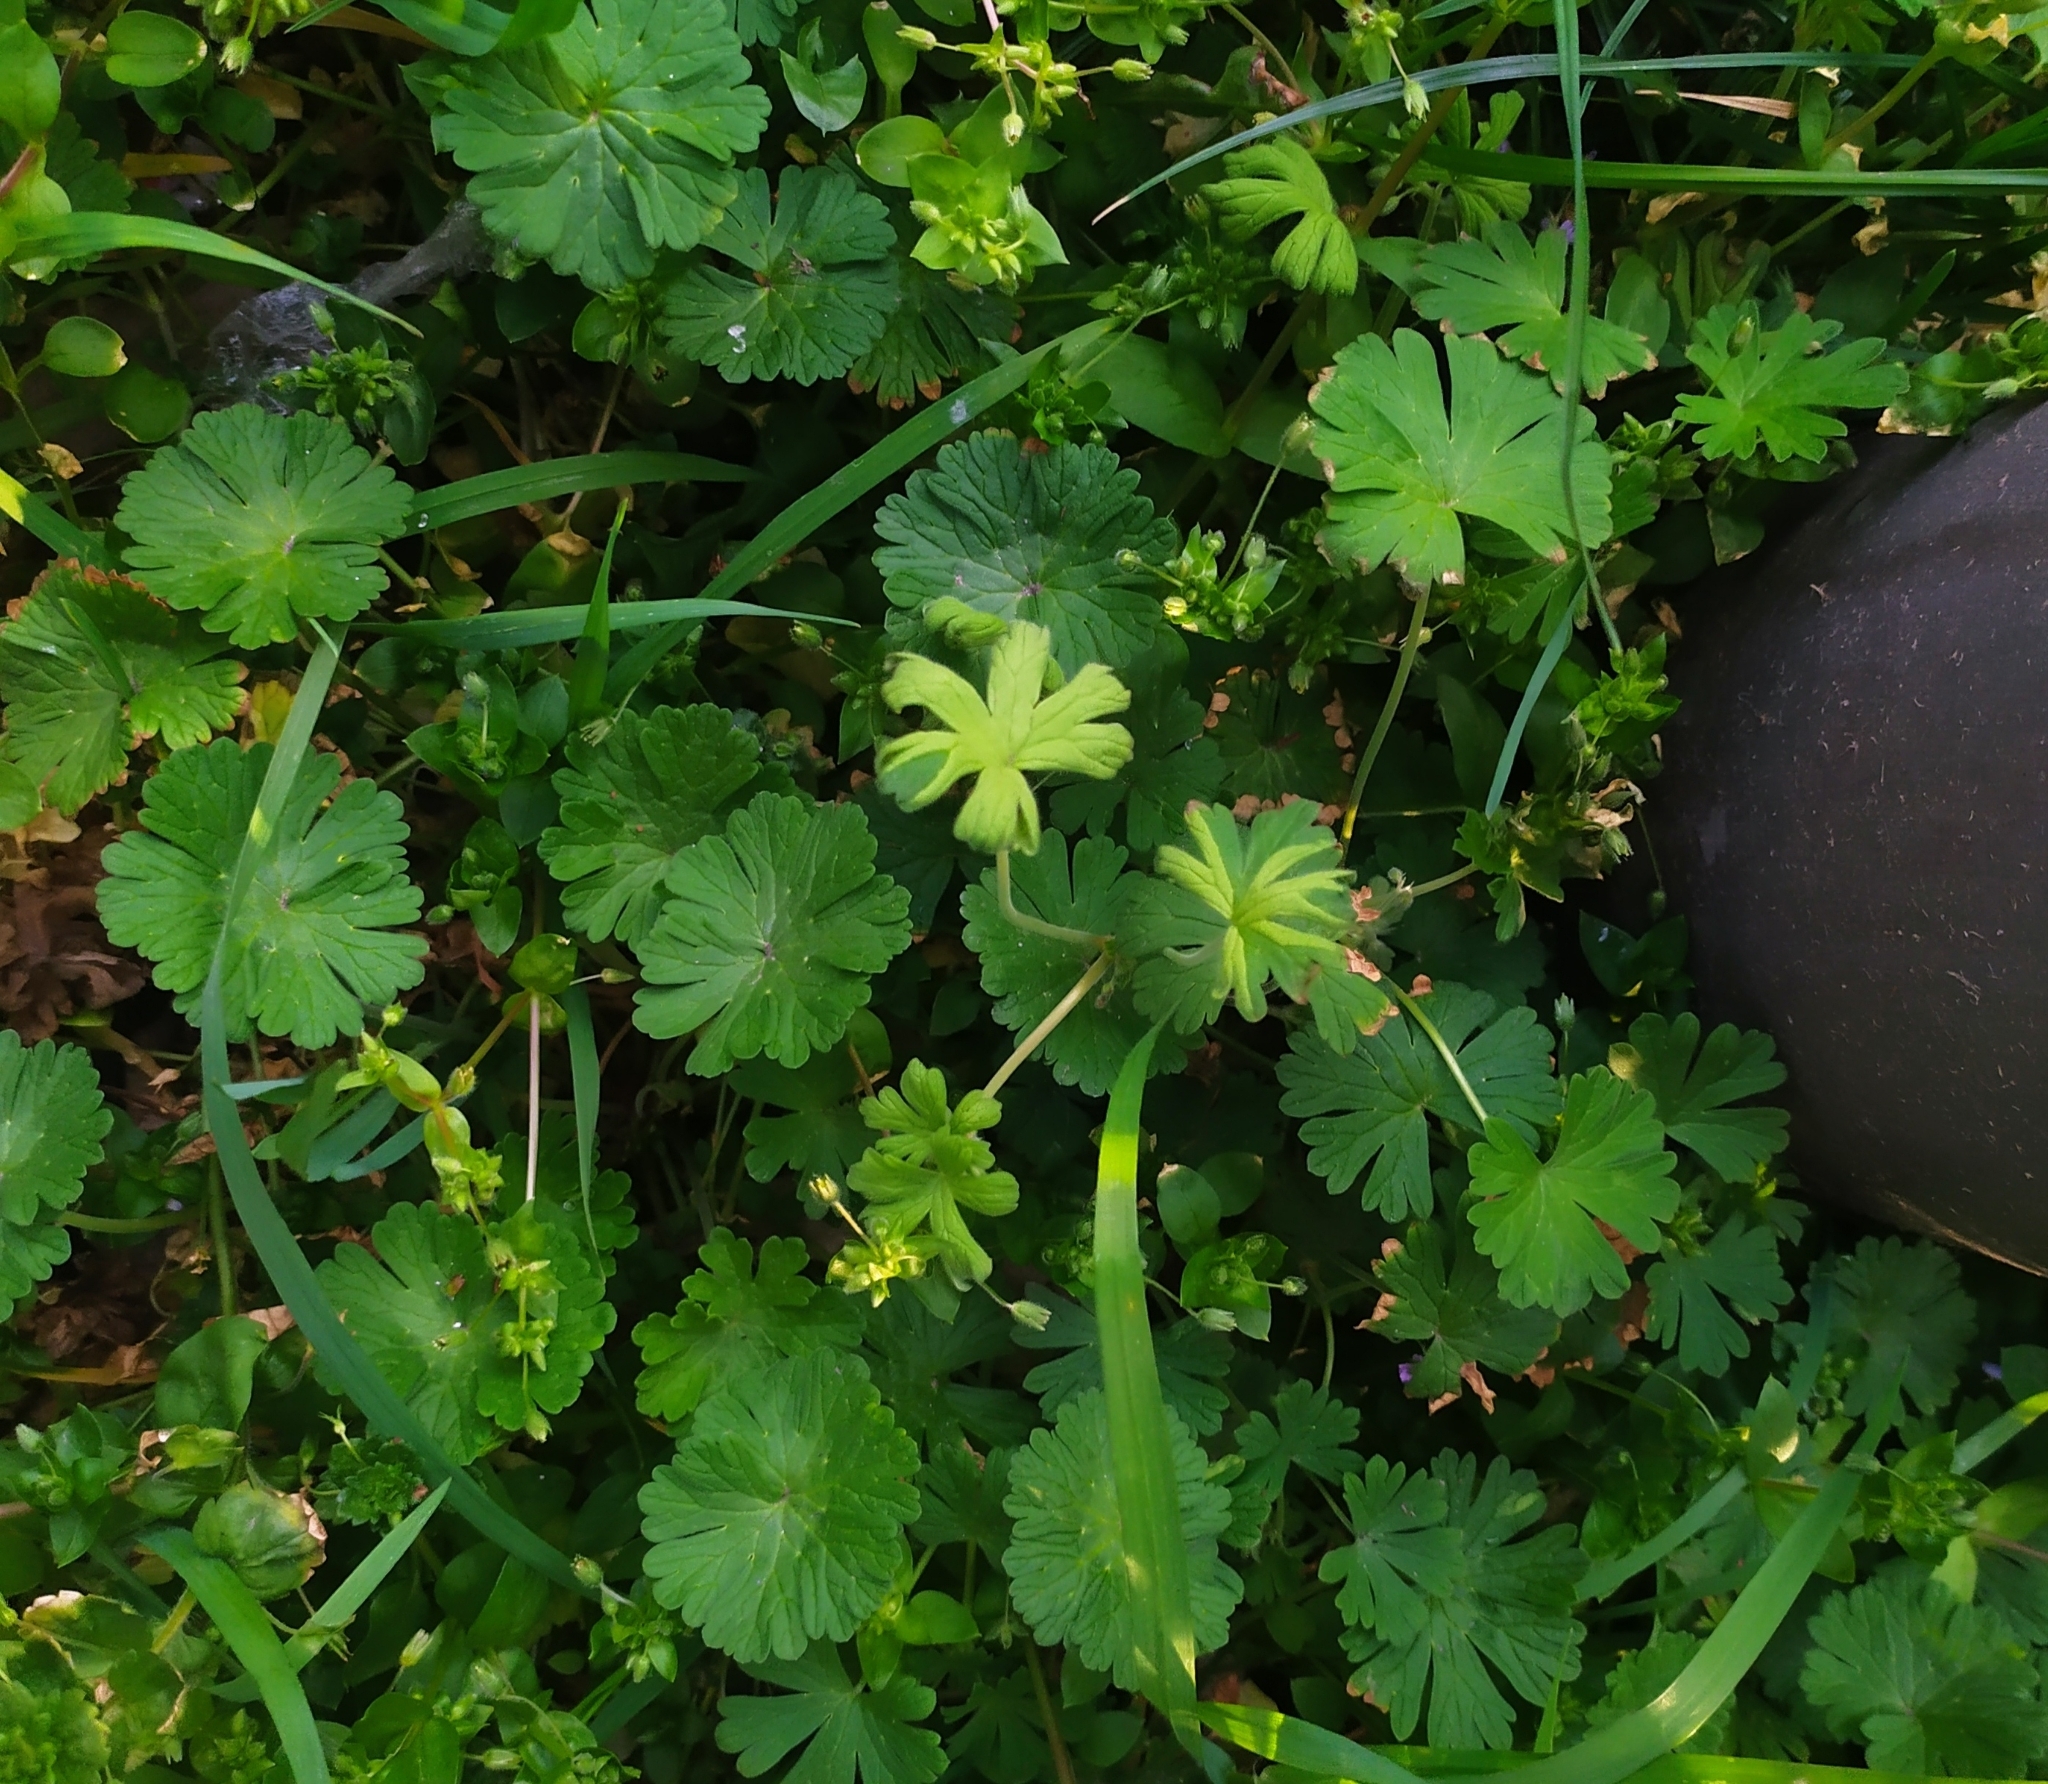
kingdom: Chromista
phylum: Oomycota
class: Peronosporea
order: Peronosporales
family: Peronosporaceae
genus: Peronospora
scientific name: Peronospora conglomerata
